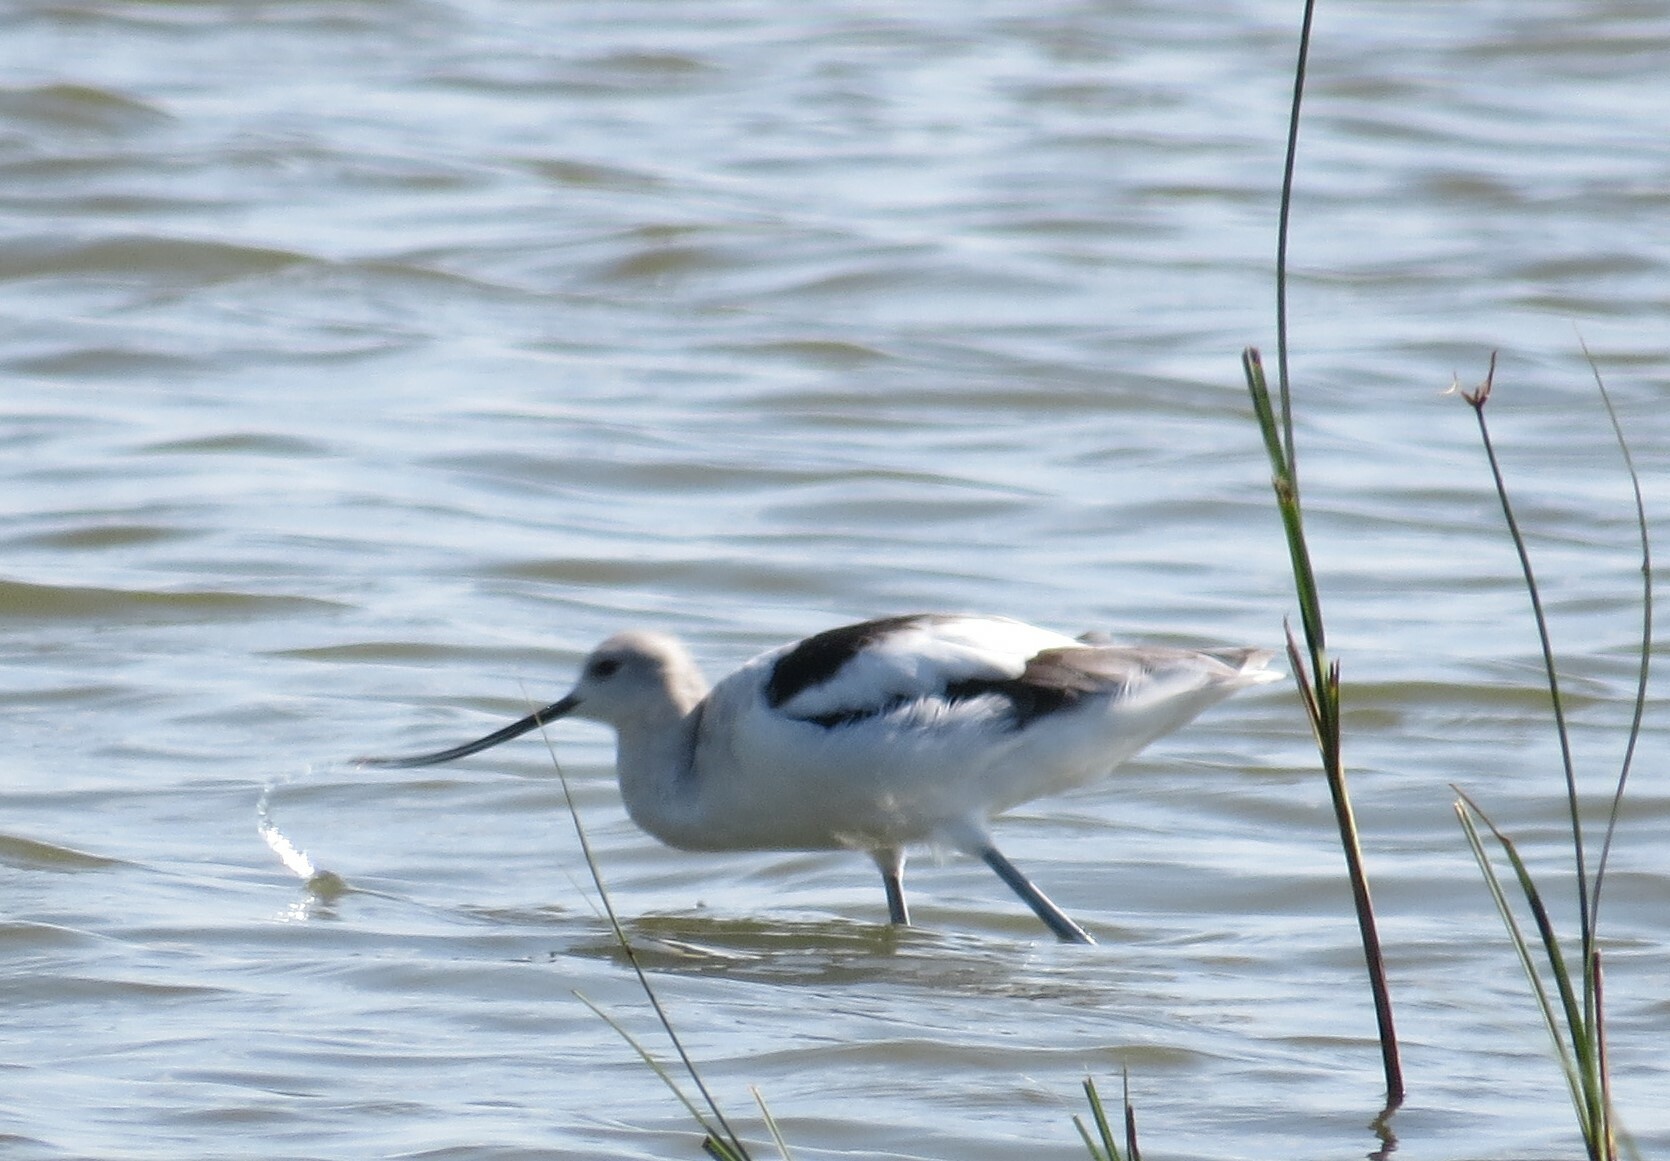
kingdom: Animalia
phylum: Chordata
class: Aves
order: Charadriiformes
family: Recurvirostridae
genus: Recurvirostra
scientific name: Recurvirostra americana
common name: American avocet
